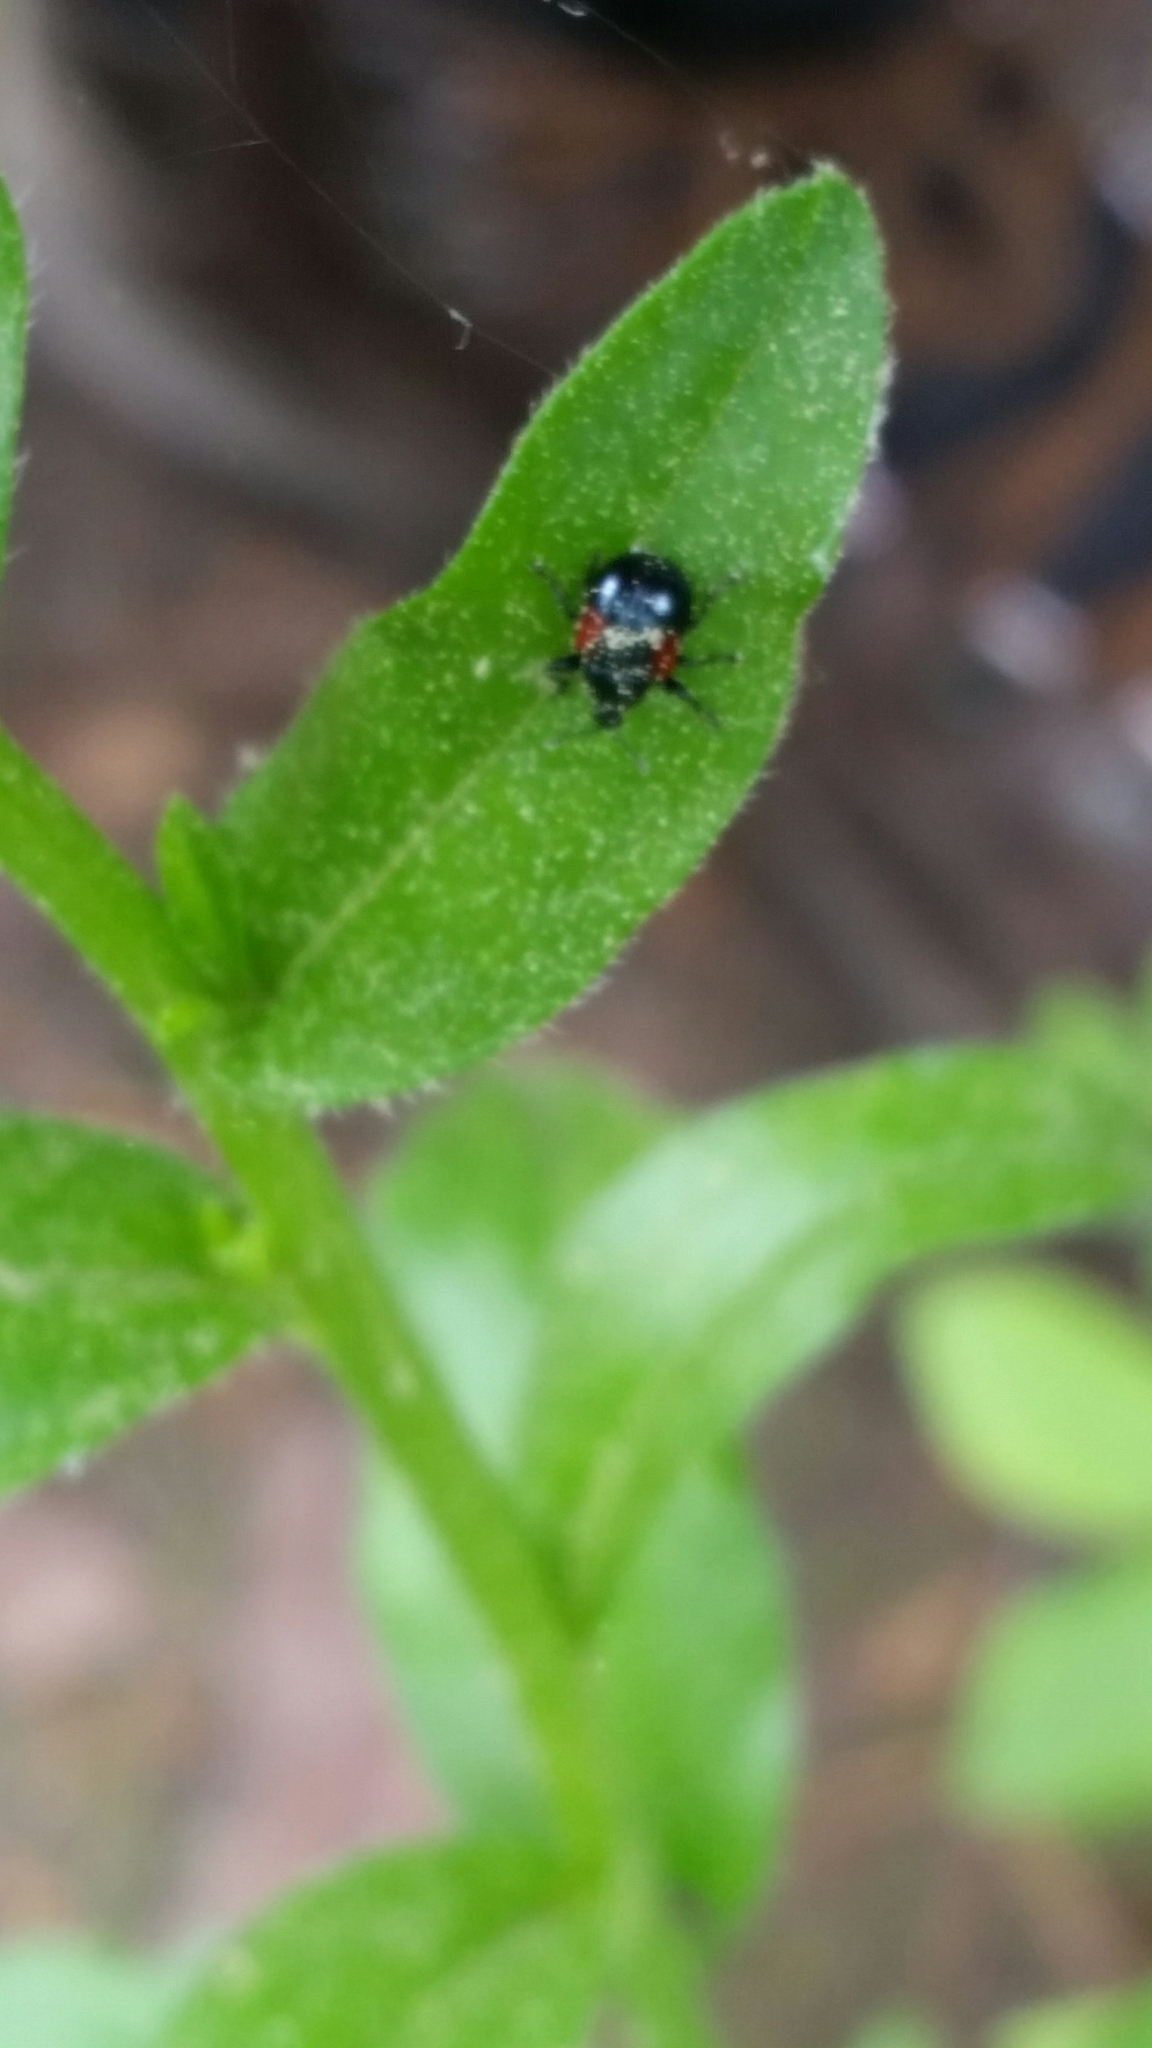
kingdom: Animalia
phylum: Arthropoda
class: Insecta
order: Coleoptera
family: Attelabidae
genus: Attelabus
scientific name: Attelabus bipustulatus
